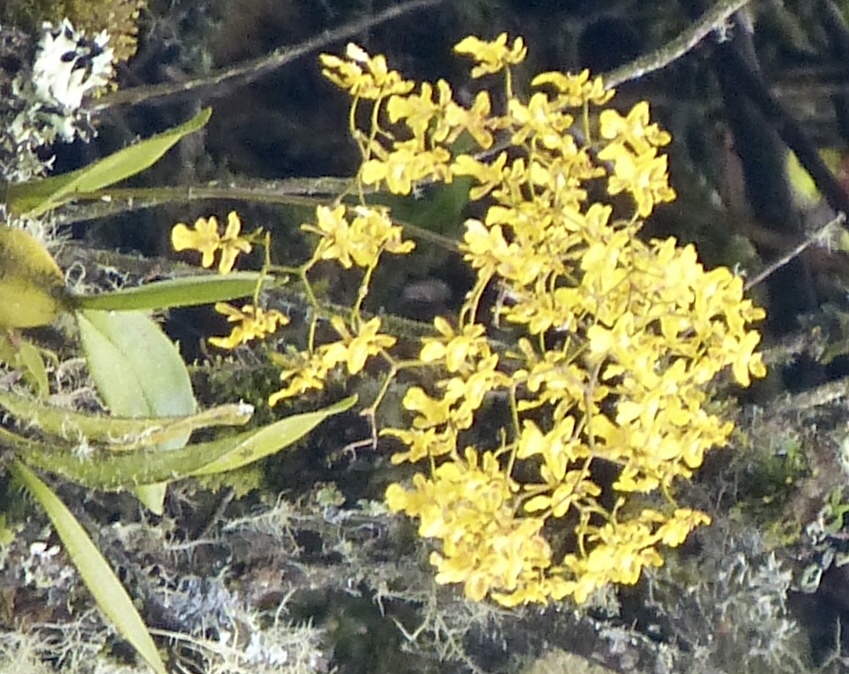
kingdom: Plantae
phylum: Tracheophyta
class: Liliopsida
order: Asparagales
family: Orchidaceae
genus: Oncidium
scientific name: Oncidium ornithorhynchum
